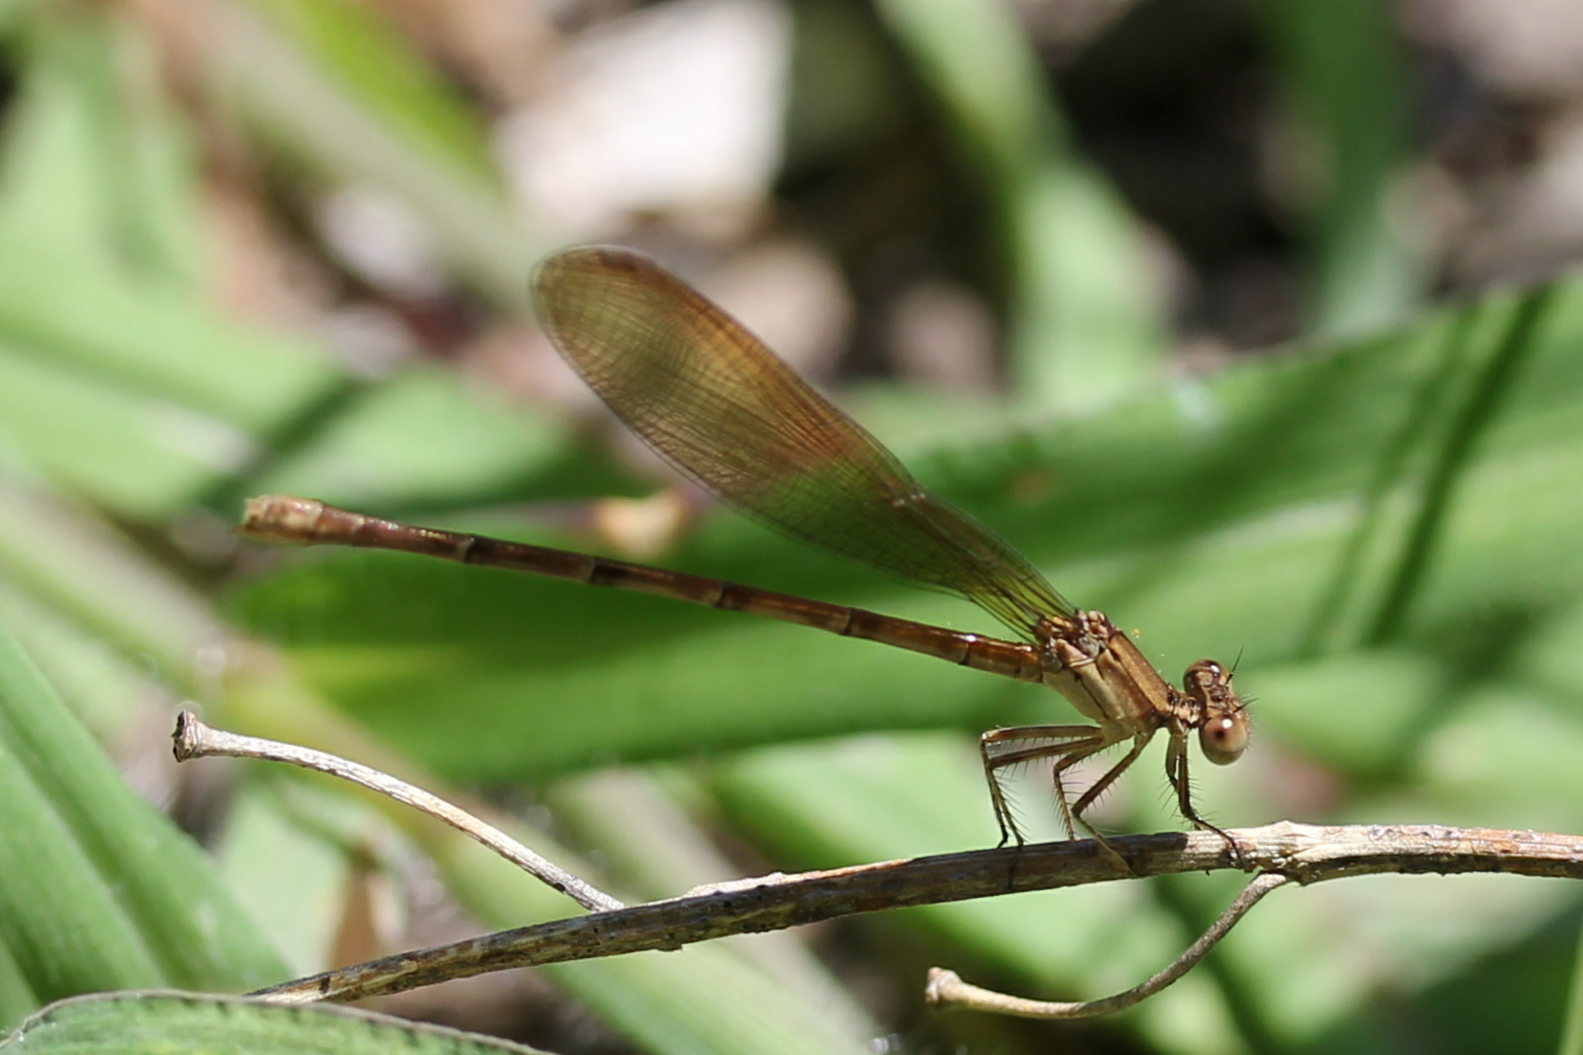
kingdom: Animalia
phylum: Arthropoda
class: Insecta
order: Odonata
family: Coenagrionidae
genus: Argia
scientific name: Argia sedula
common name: Blue-ringed dancer
